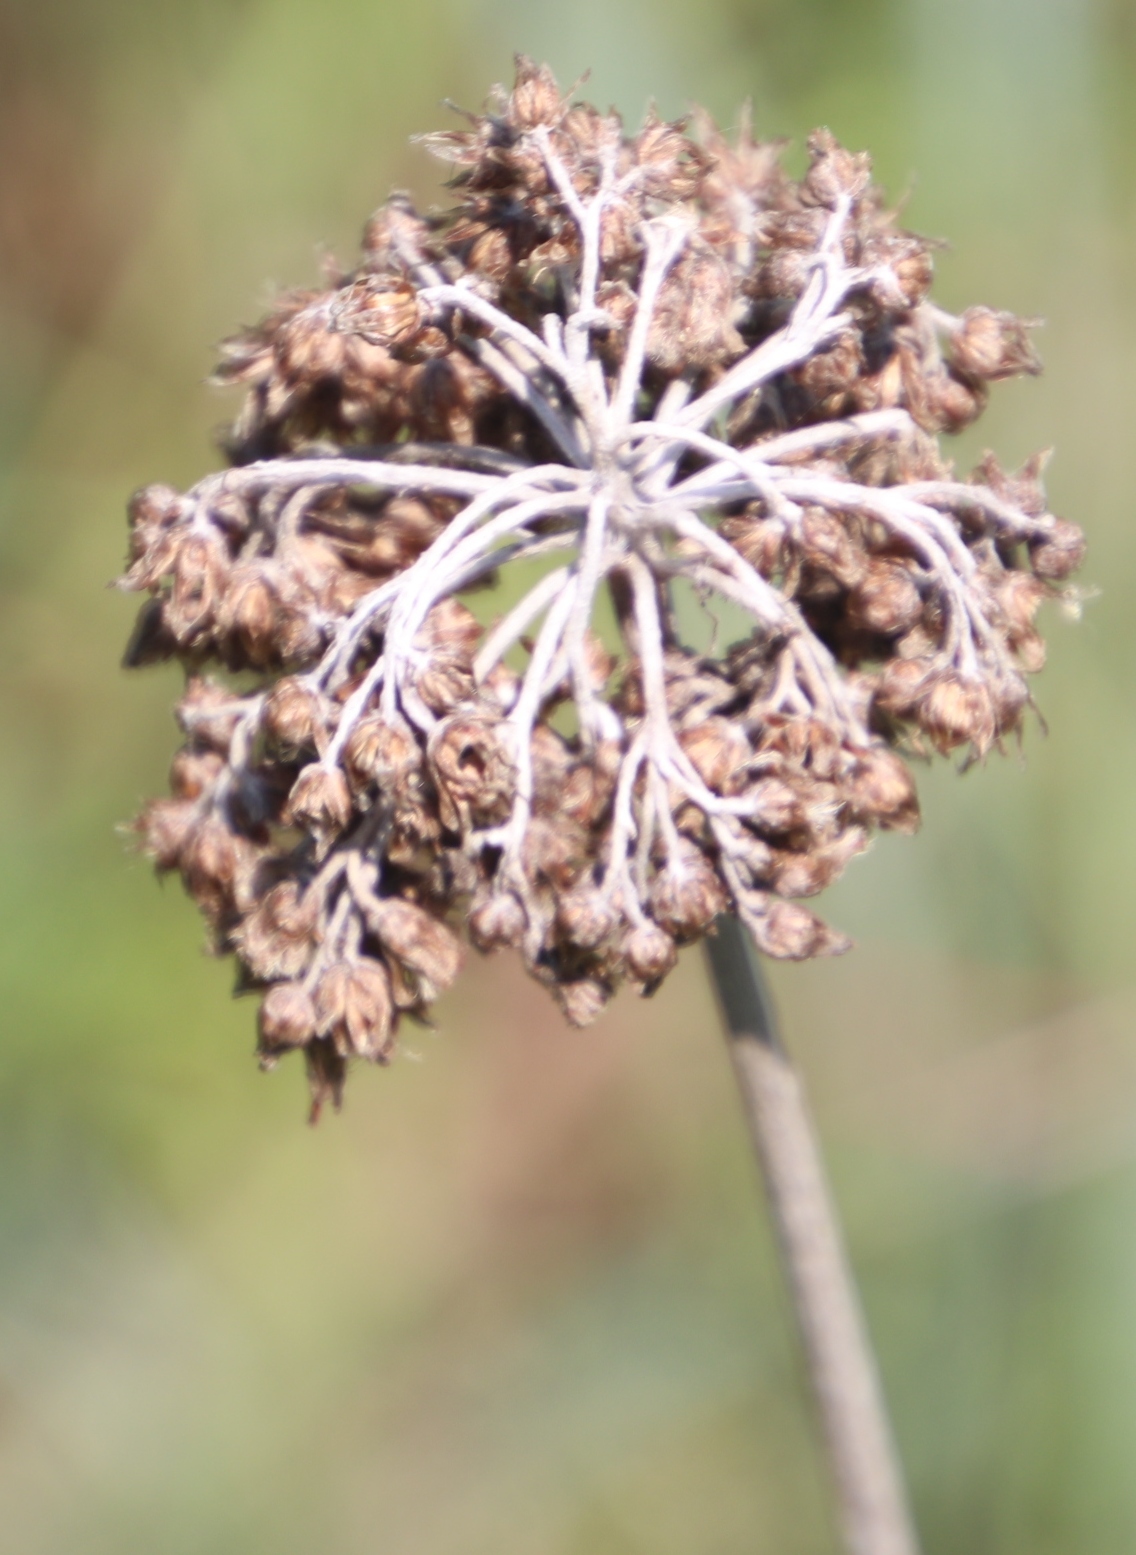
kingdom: Plantae
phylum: Tracheophyta
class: Magnoliopsida
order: Asterales
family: Asteraceae
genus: Helichrysum
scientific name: Helichrysum nudifolium
